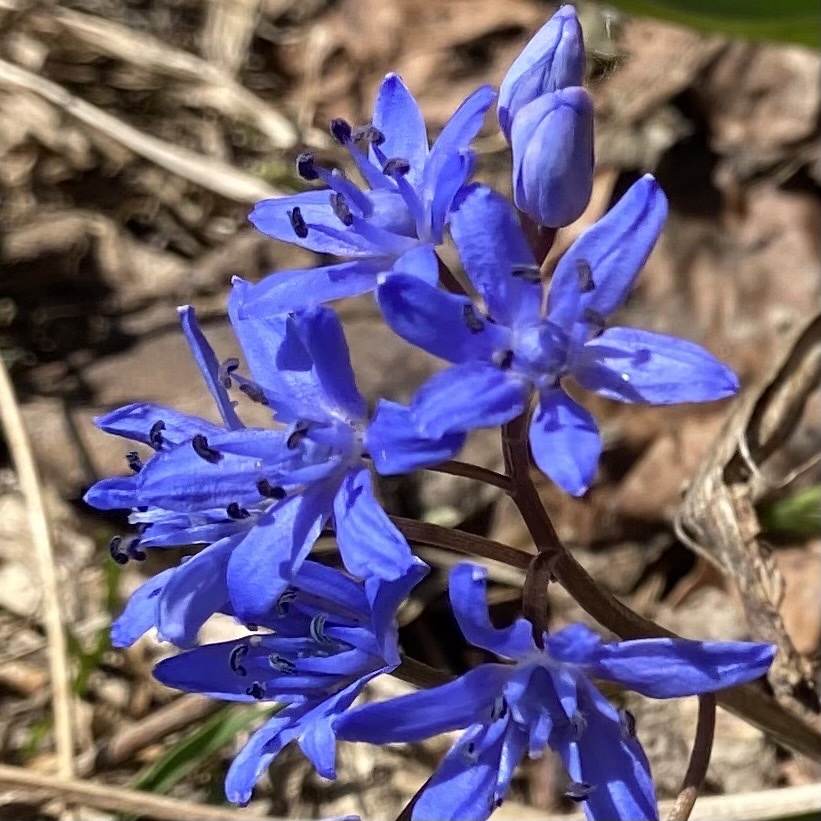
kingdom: Plantae
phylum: Tracheophyta
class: Liliopsida
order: Asparagales
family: Asparagaceae
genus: Scilla
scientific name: Scilla bifolia
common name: Alpine squill
